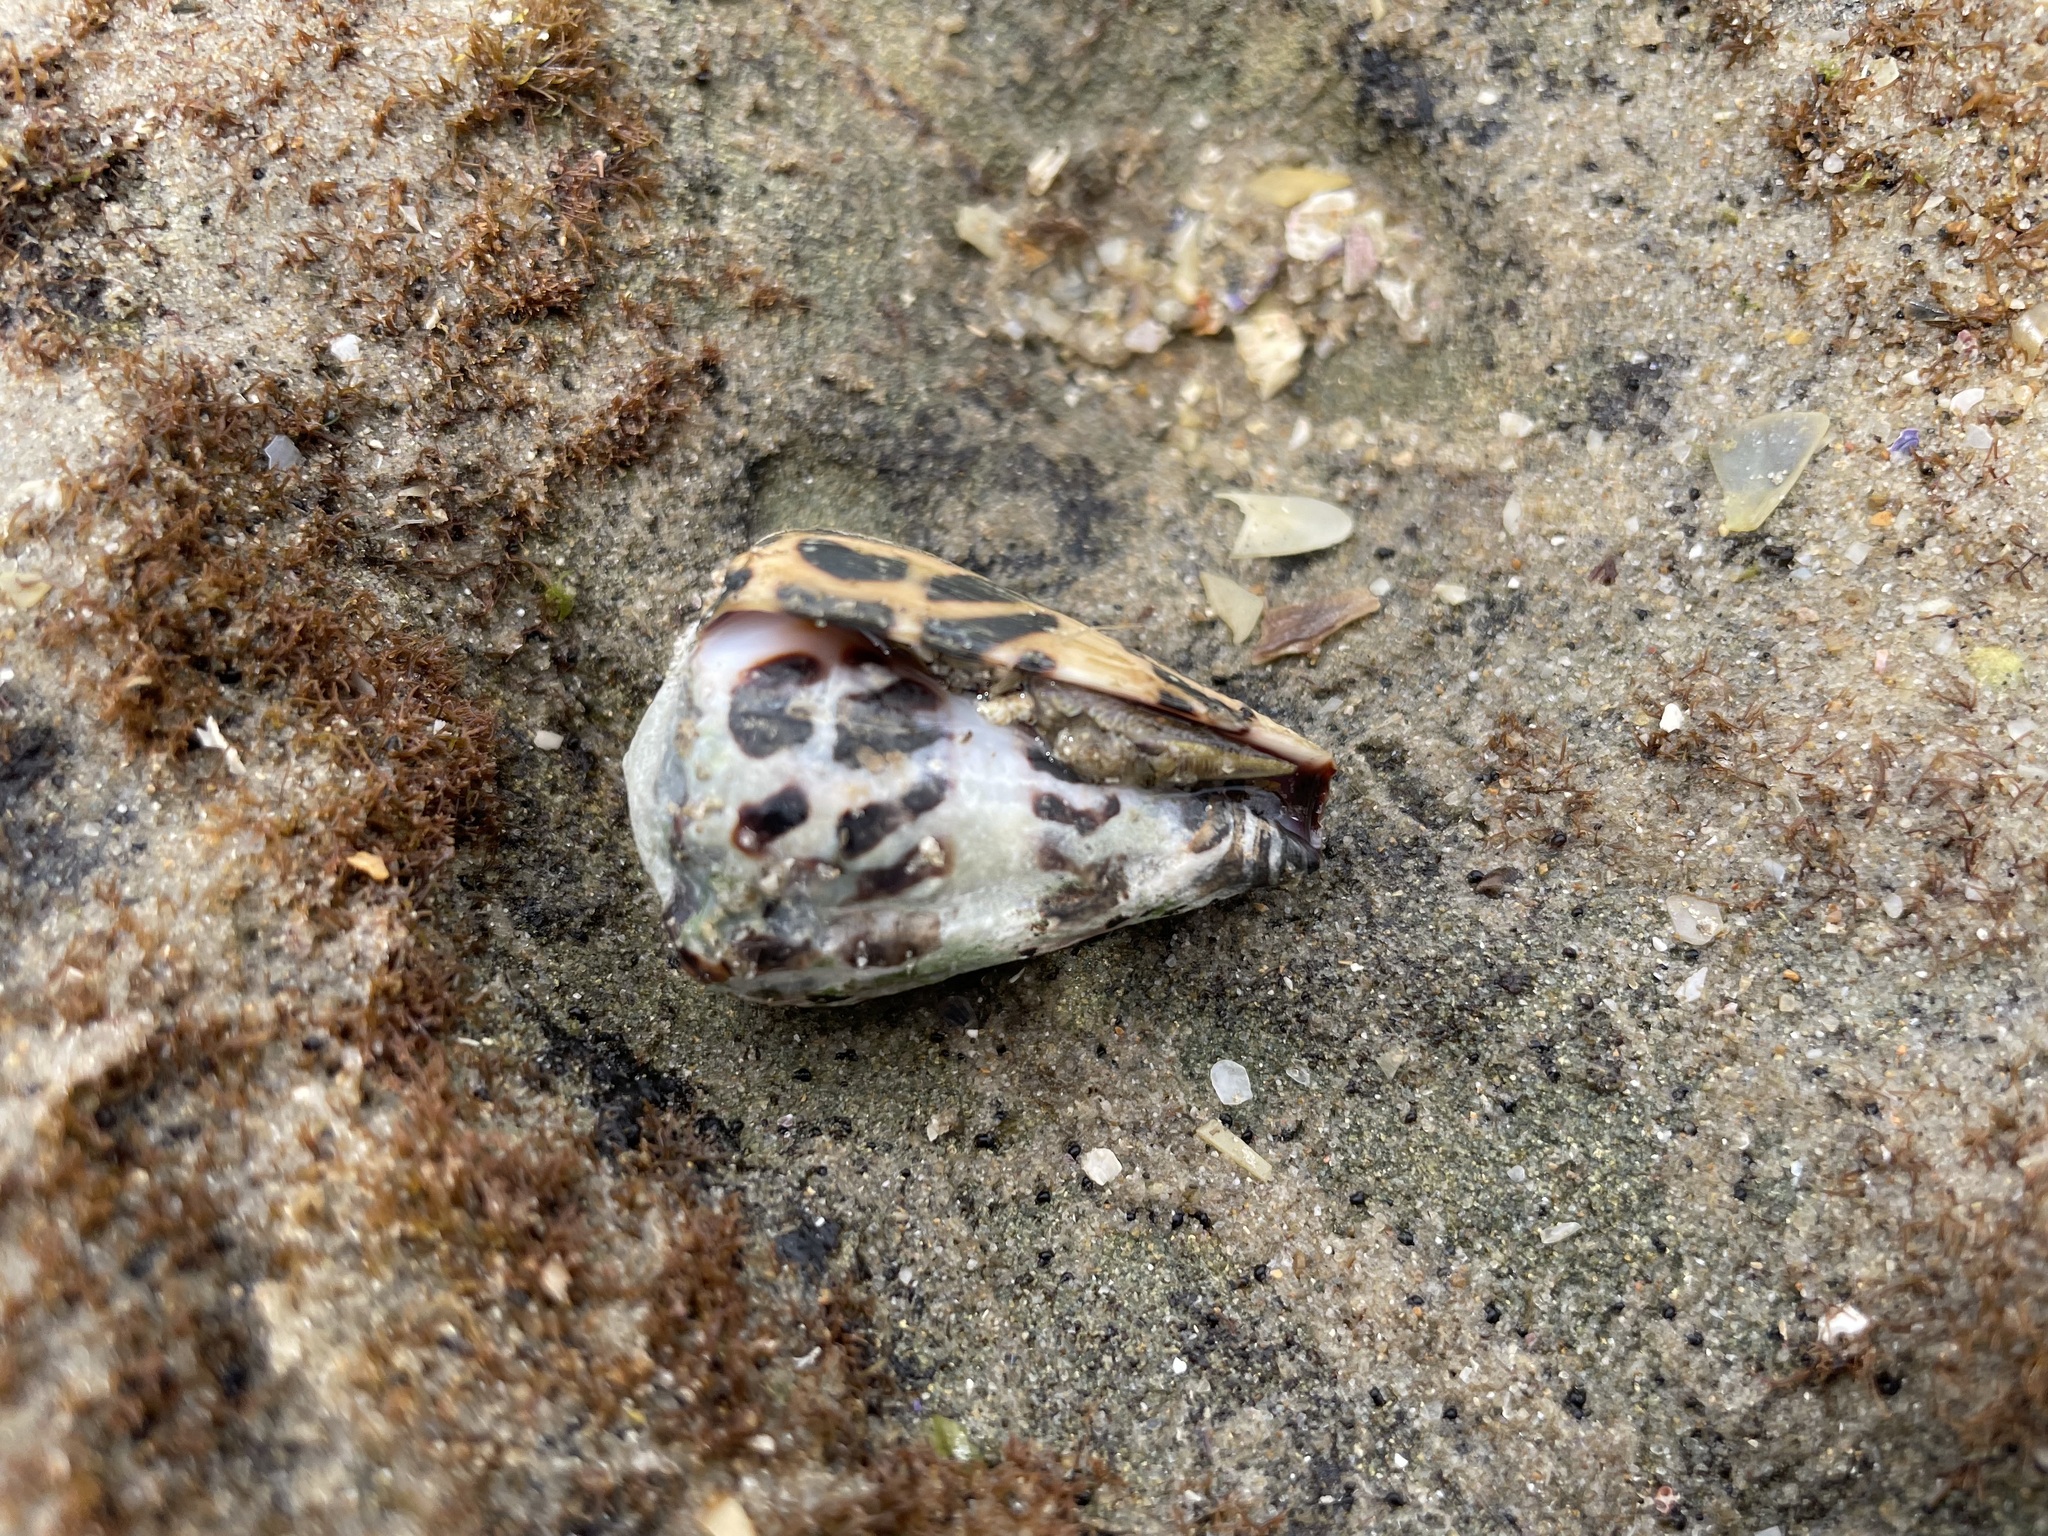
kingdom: Animalia
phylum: Mollusca
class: Gastropoda
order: Neogastropoda
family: Conidae
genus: Conus
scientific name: Conus ebraeus
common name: Hebrew cone
